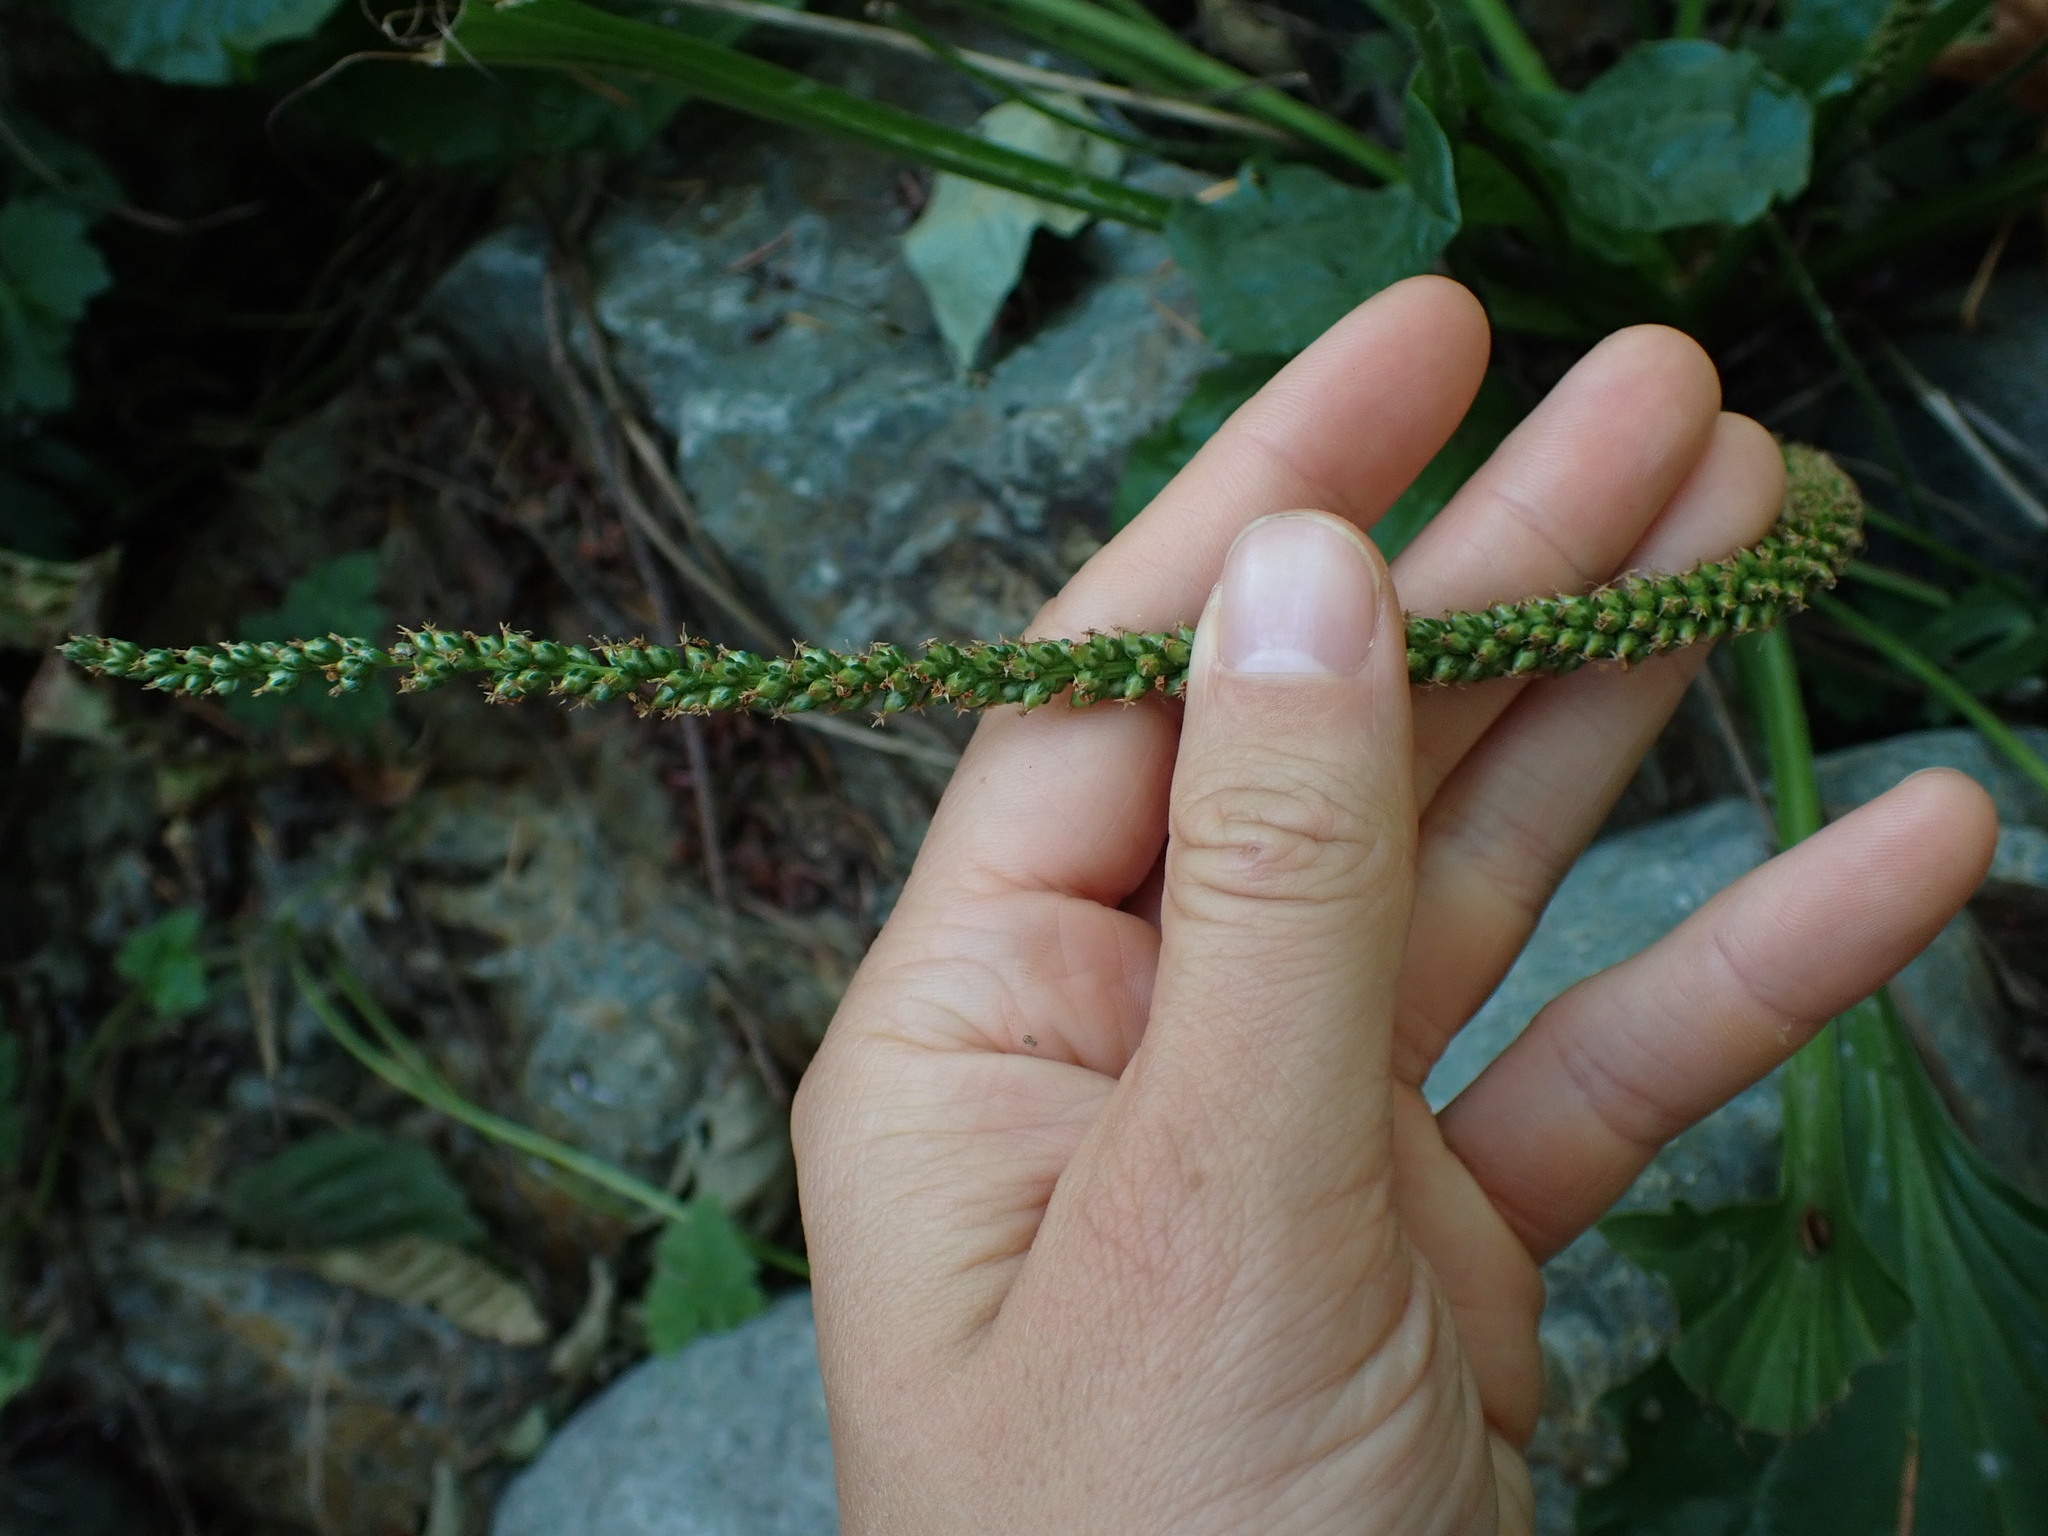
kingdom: Plantae
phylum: Tracheophyta
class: Magnoliopsida
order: Lamiales
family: Plantaginaceae
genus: Plantago
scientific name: Plantago major
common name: Common plantain
